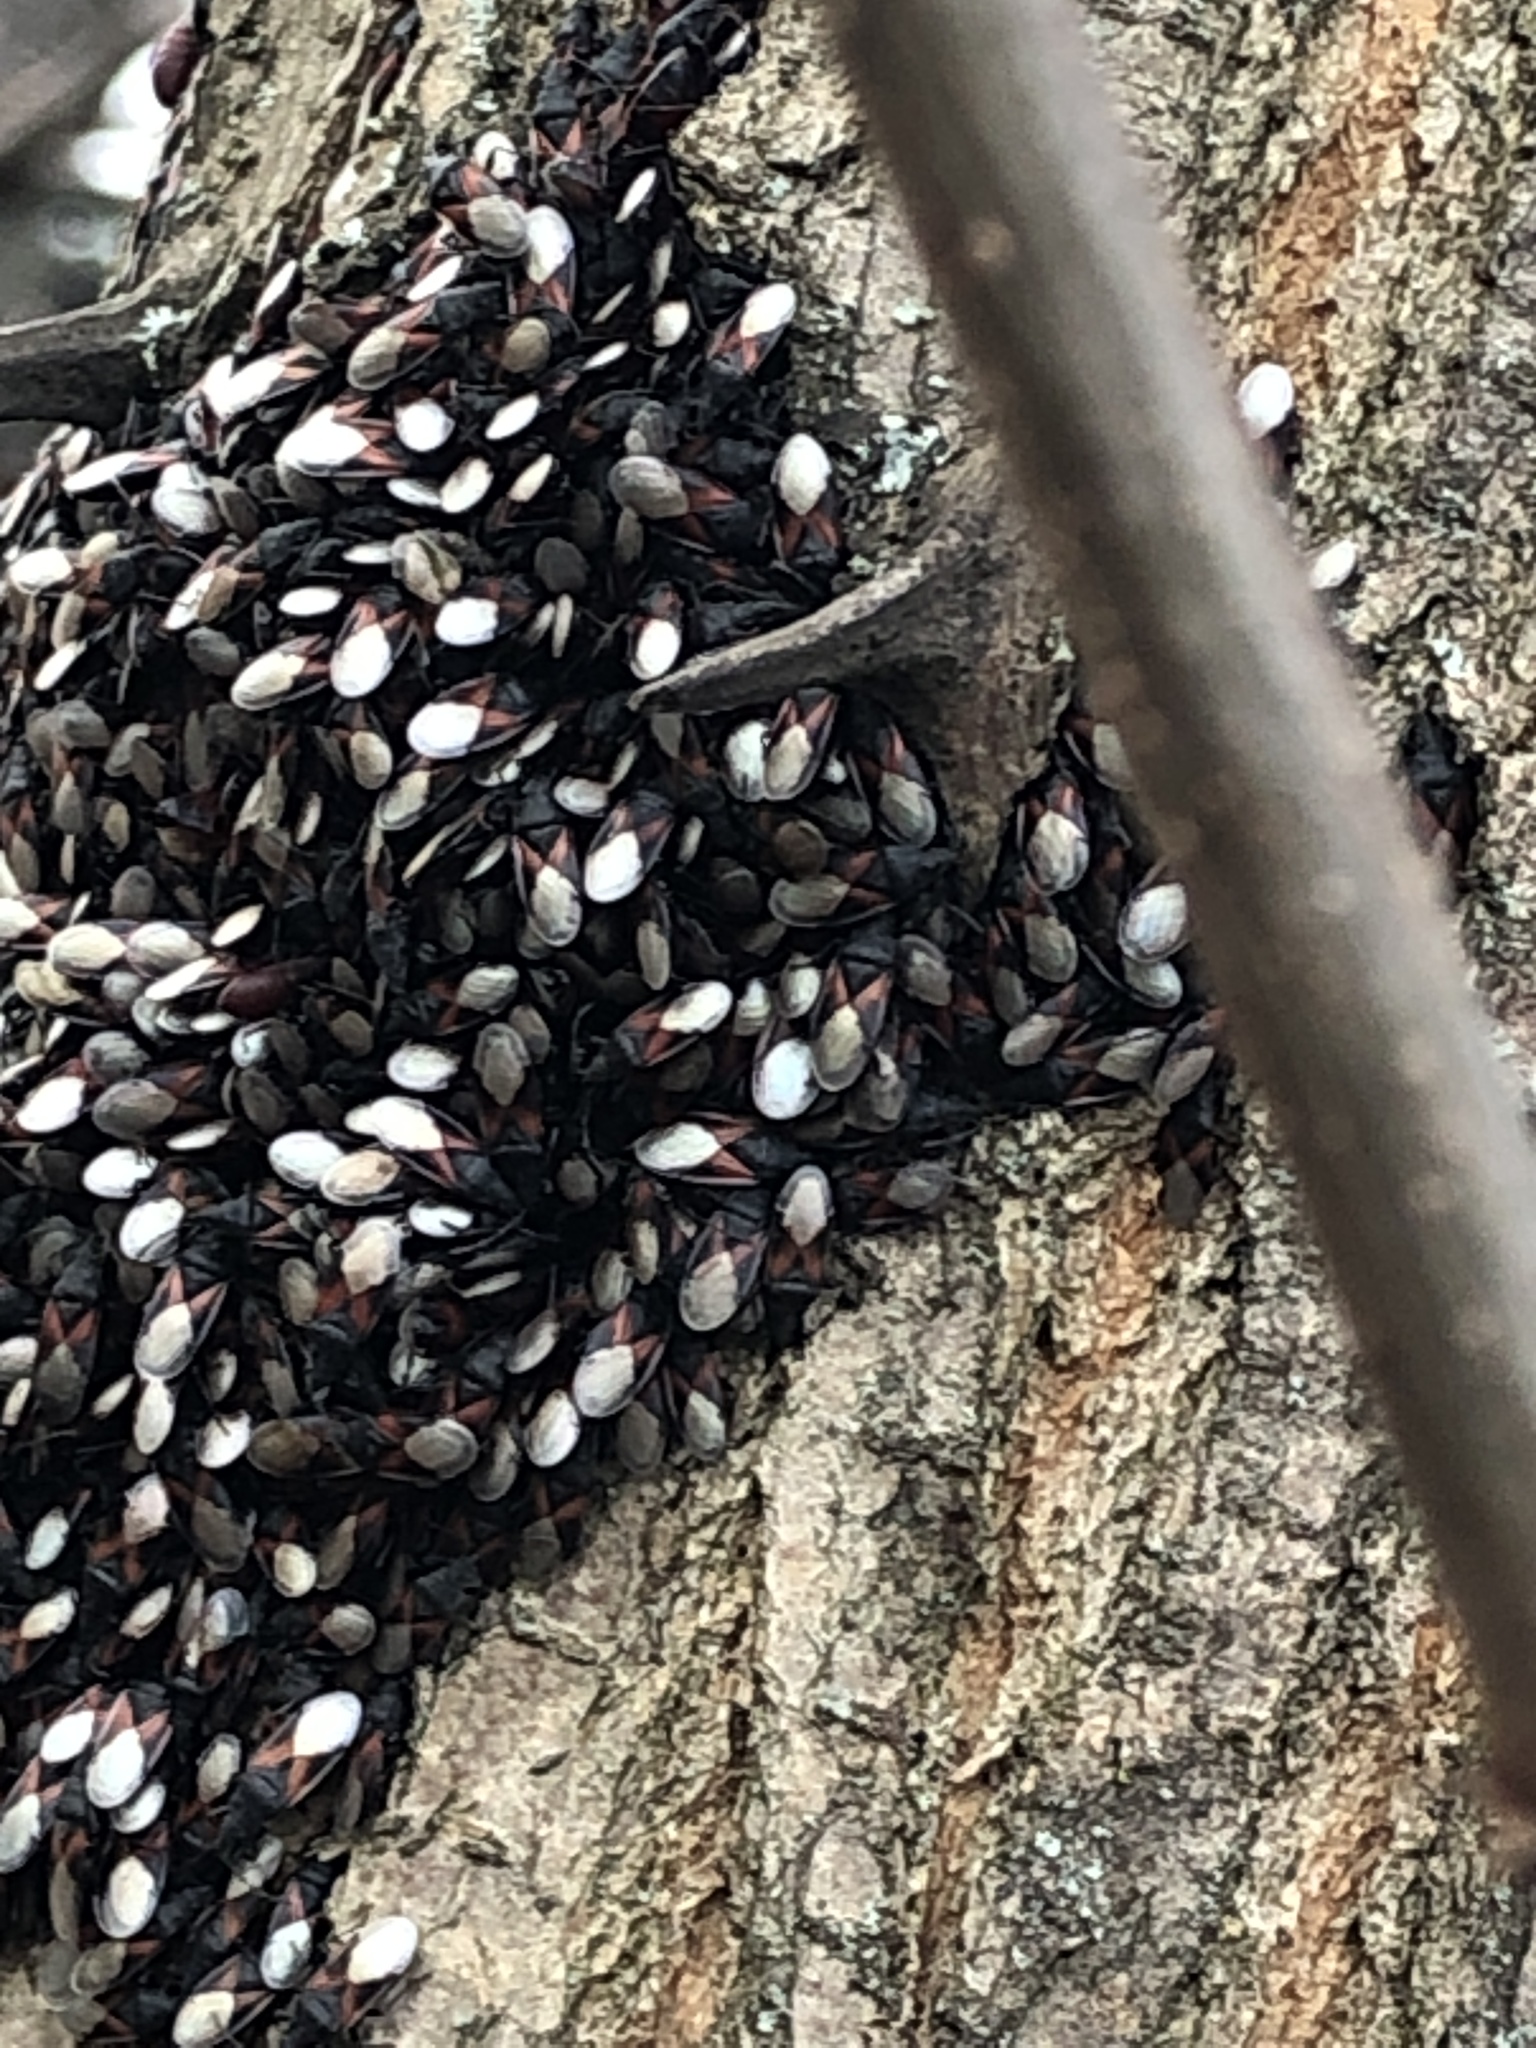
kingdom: Animalia
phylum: Arthropoda
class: Insecta
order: Hemiptera
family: Oxycarenidae
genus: Oxycarenus
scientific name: Oxycarenus lavaterae
